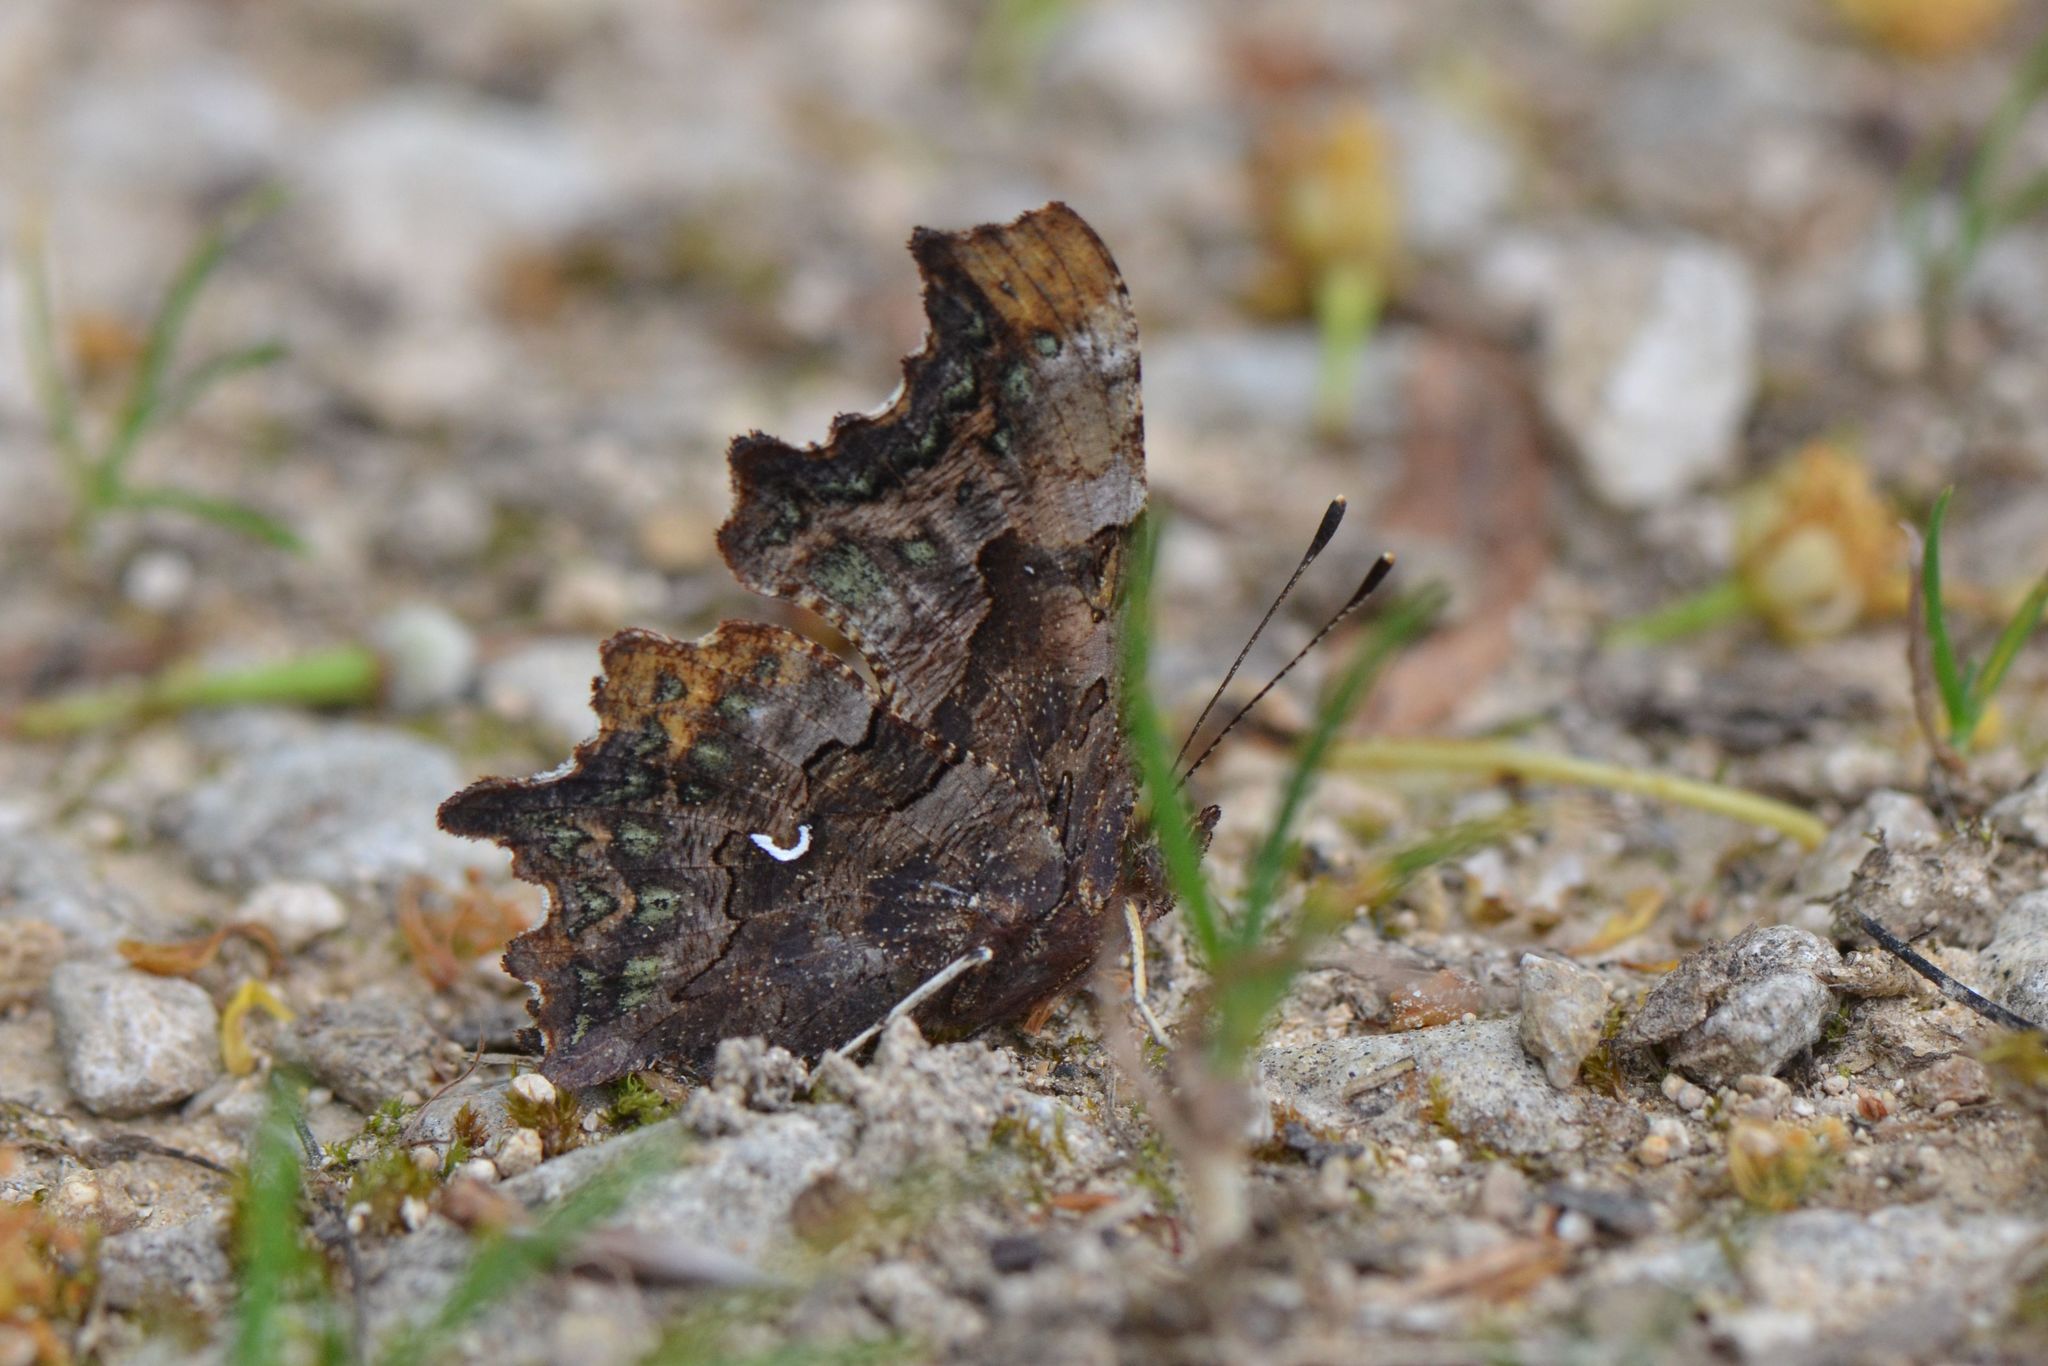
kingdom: Animalia
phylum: Arthropoda
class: Insecta
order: Lepidoptera
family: Nymphalidae
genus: Polygonia
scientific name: Polygonia c-album
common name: Comma
